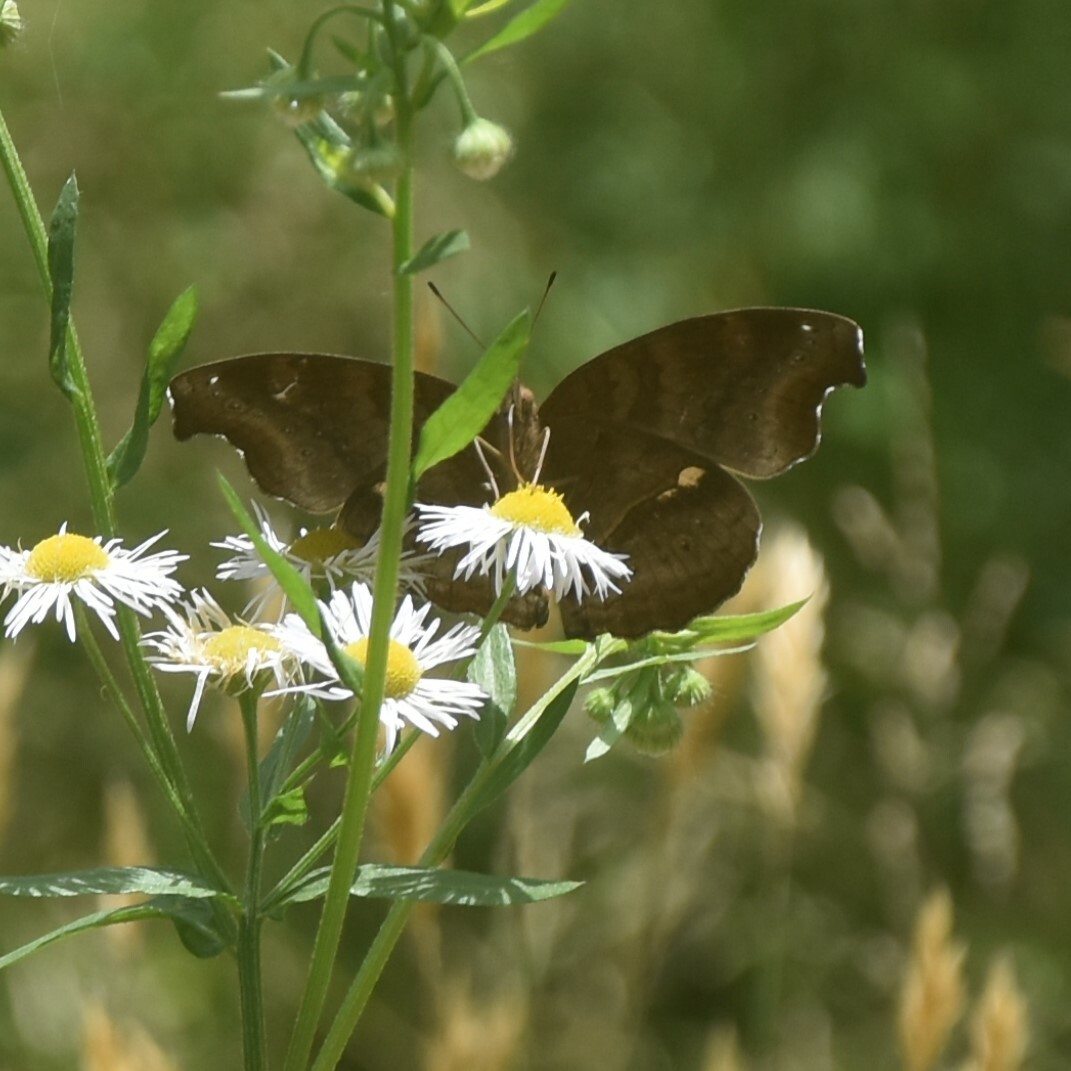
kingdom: Animalia
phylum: Arthropoda
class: Insecta
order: Lepidoptera
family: Nymphalidae
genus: Junonia
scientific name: Junonia iphita
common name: Chocolate pansy
